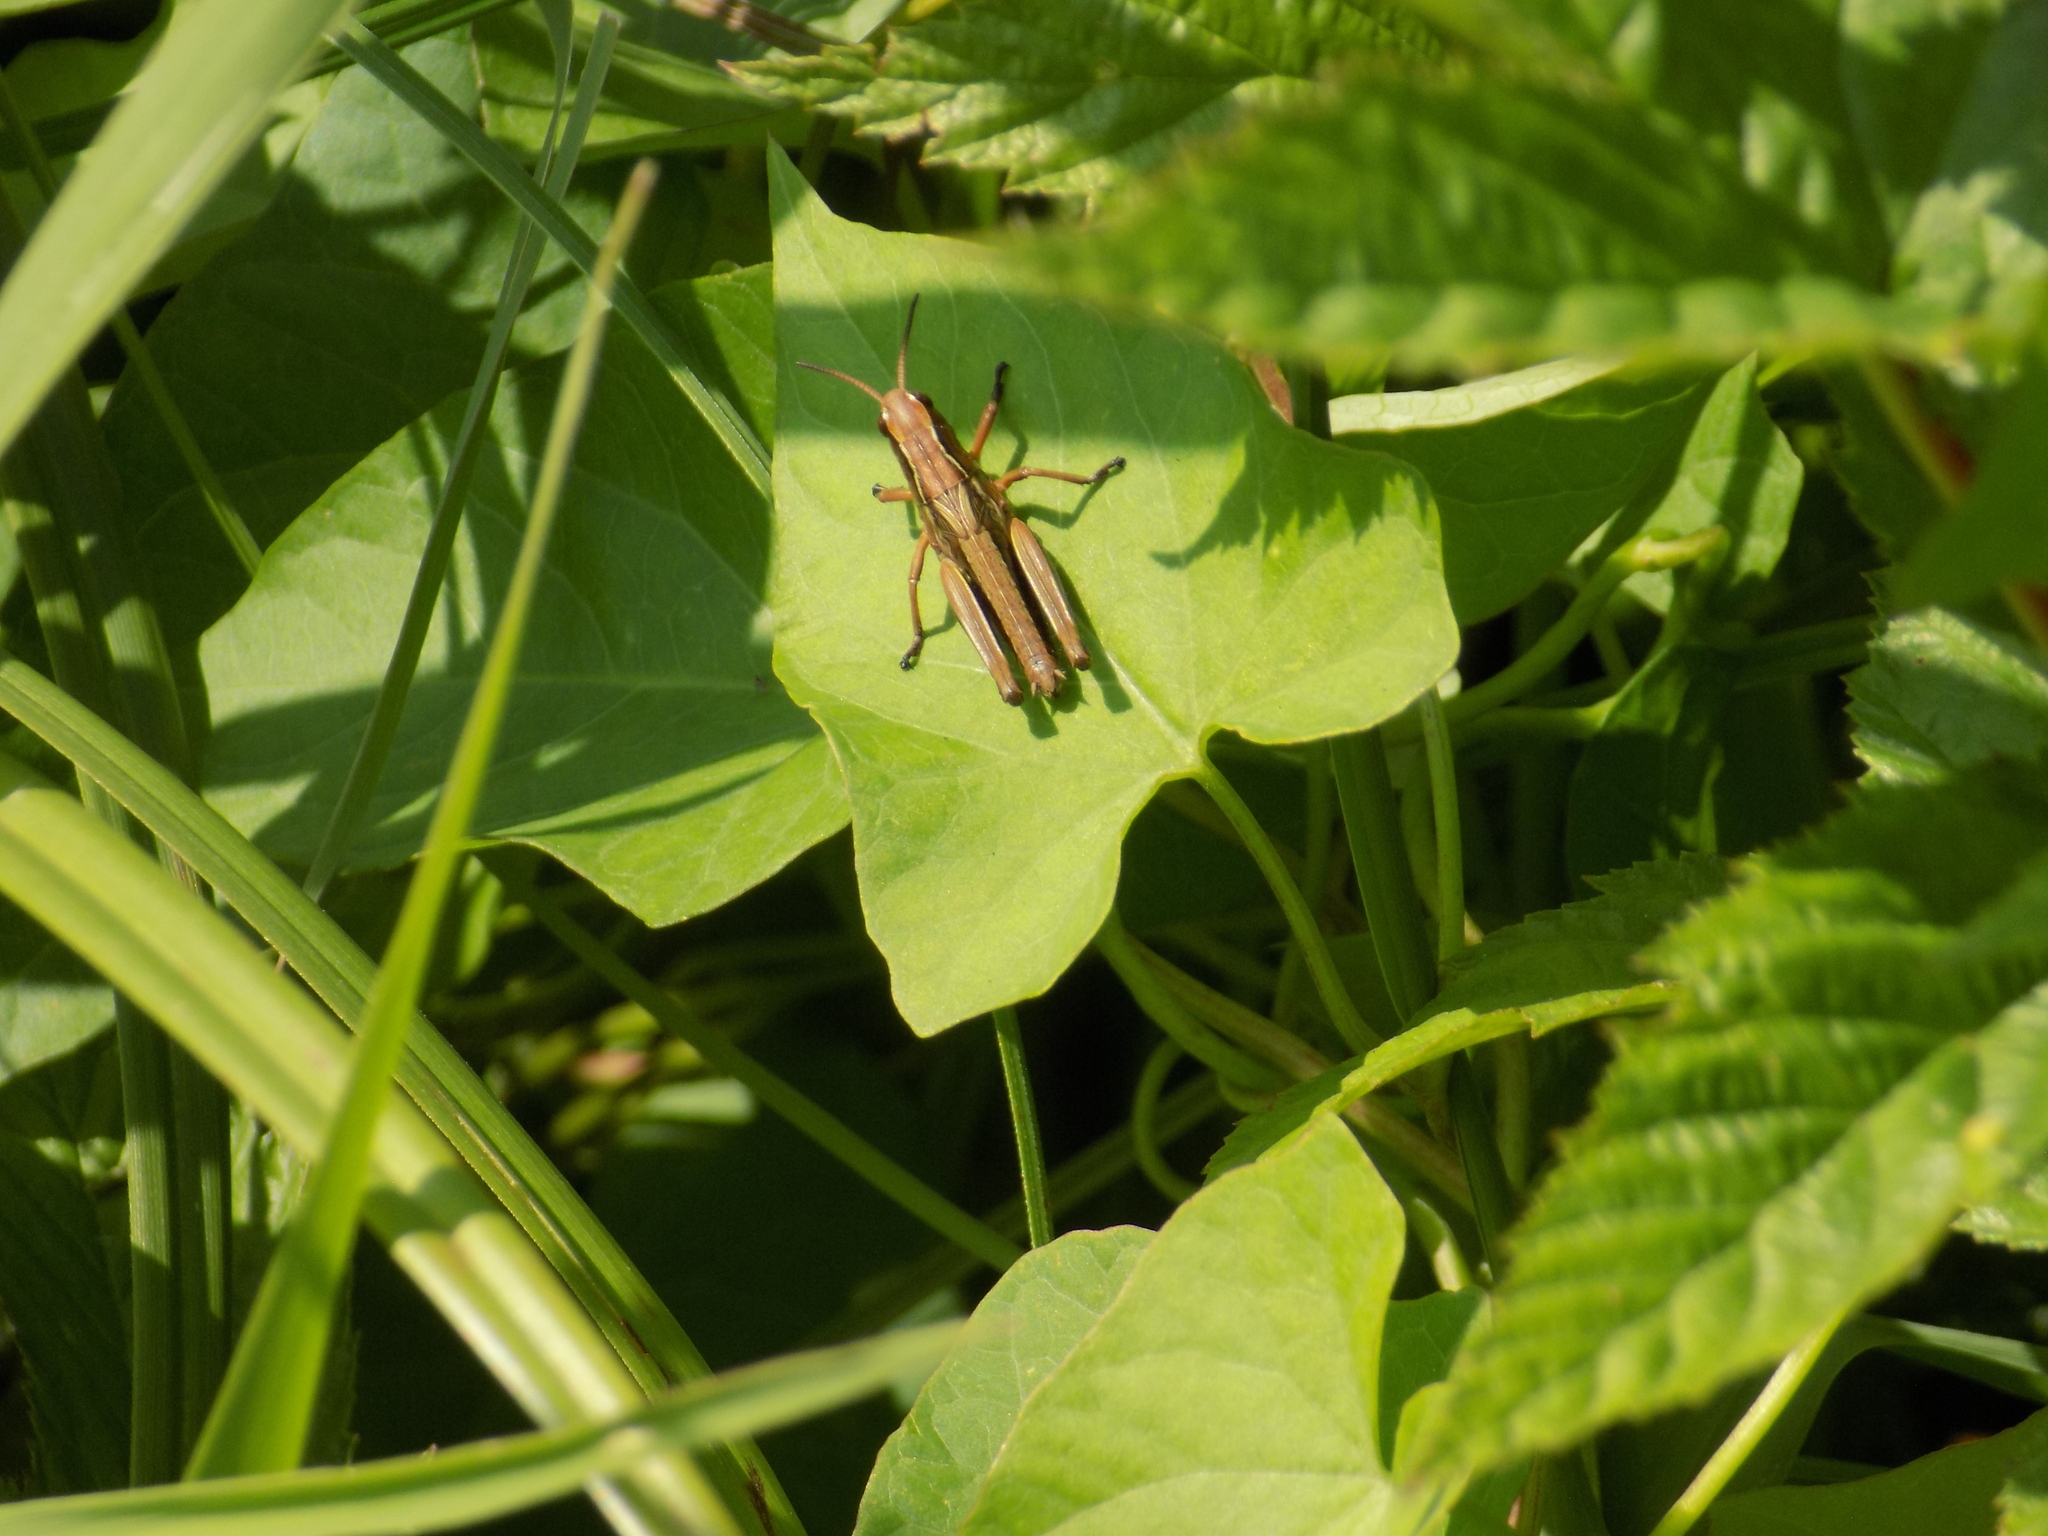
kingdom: Animalia
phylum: Arthropoda
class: Insecta
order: Orthoptera
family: Acrididae
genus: Stethophyma
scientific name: Stethophyma grossum
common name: Large marsh grasshopper
